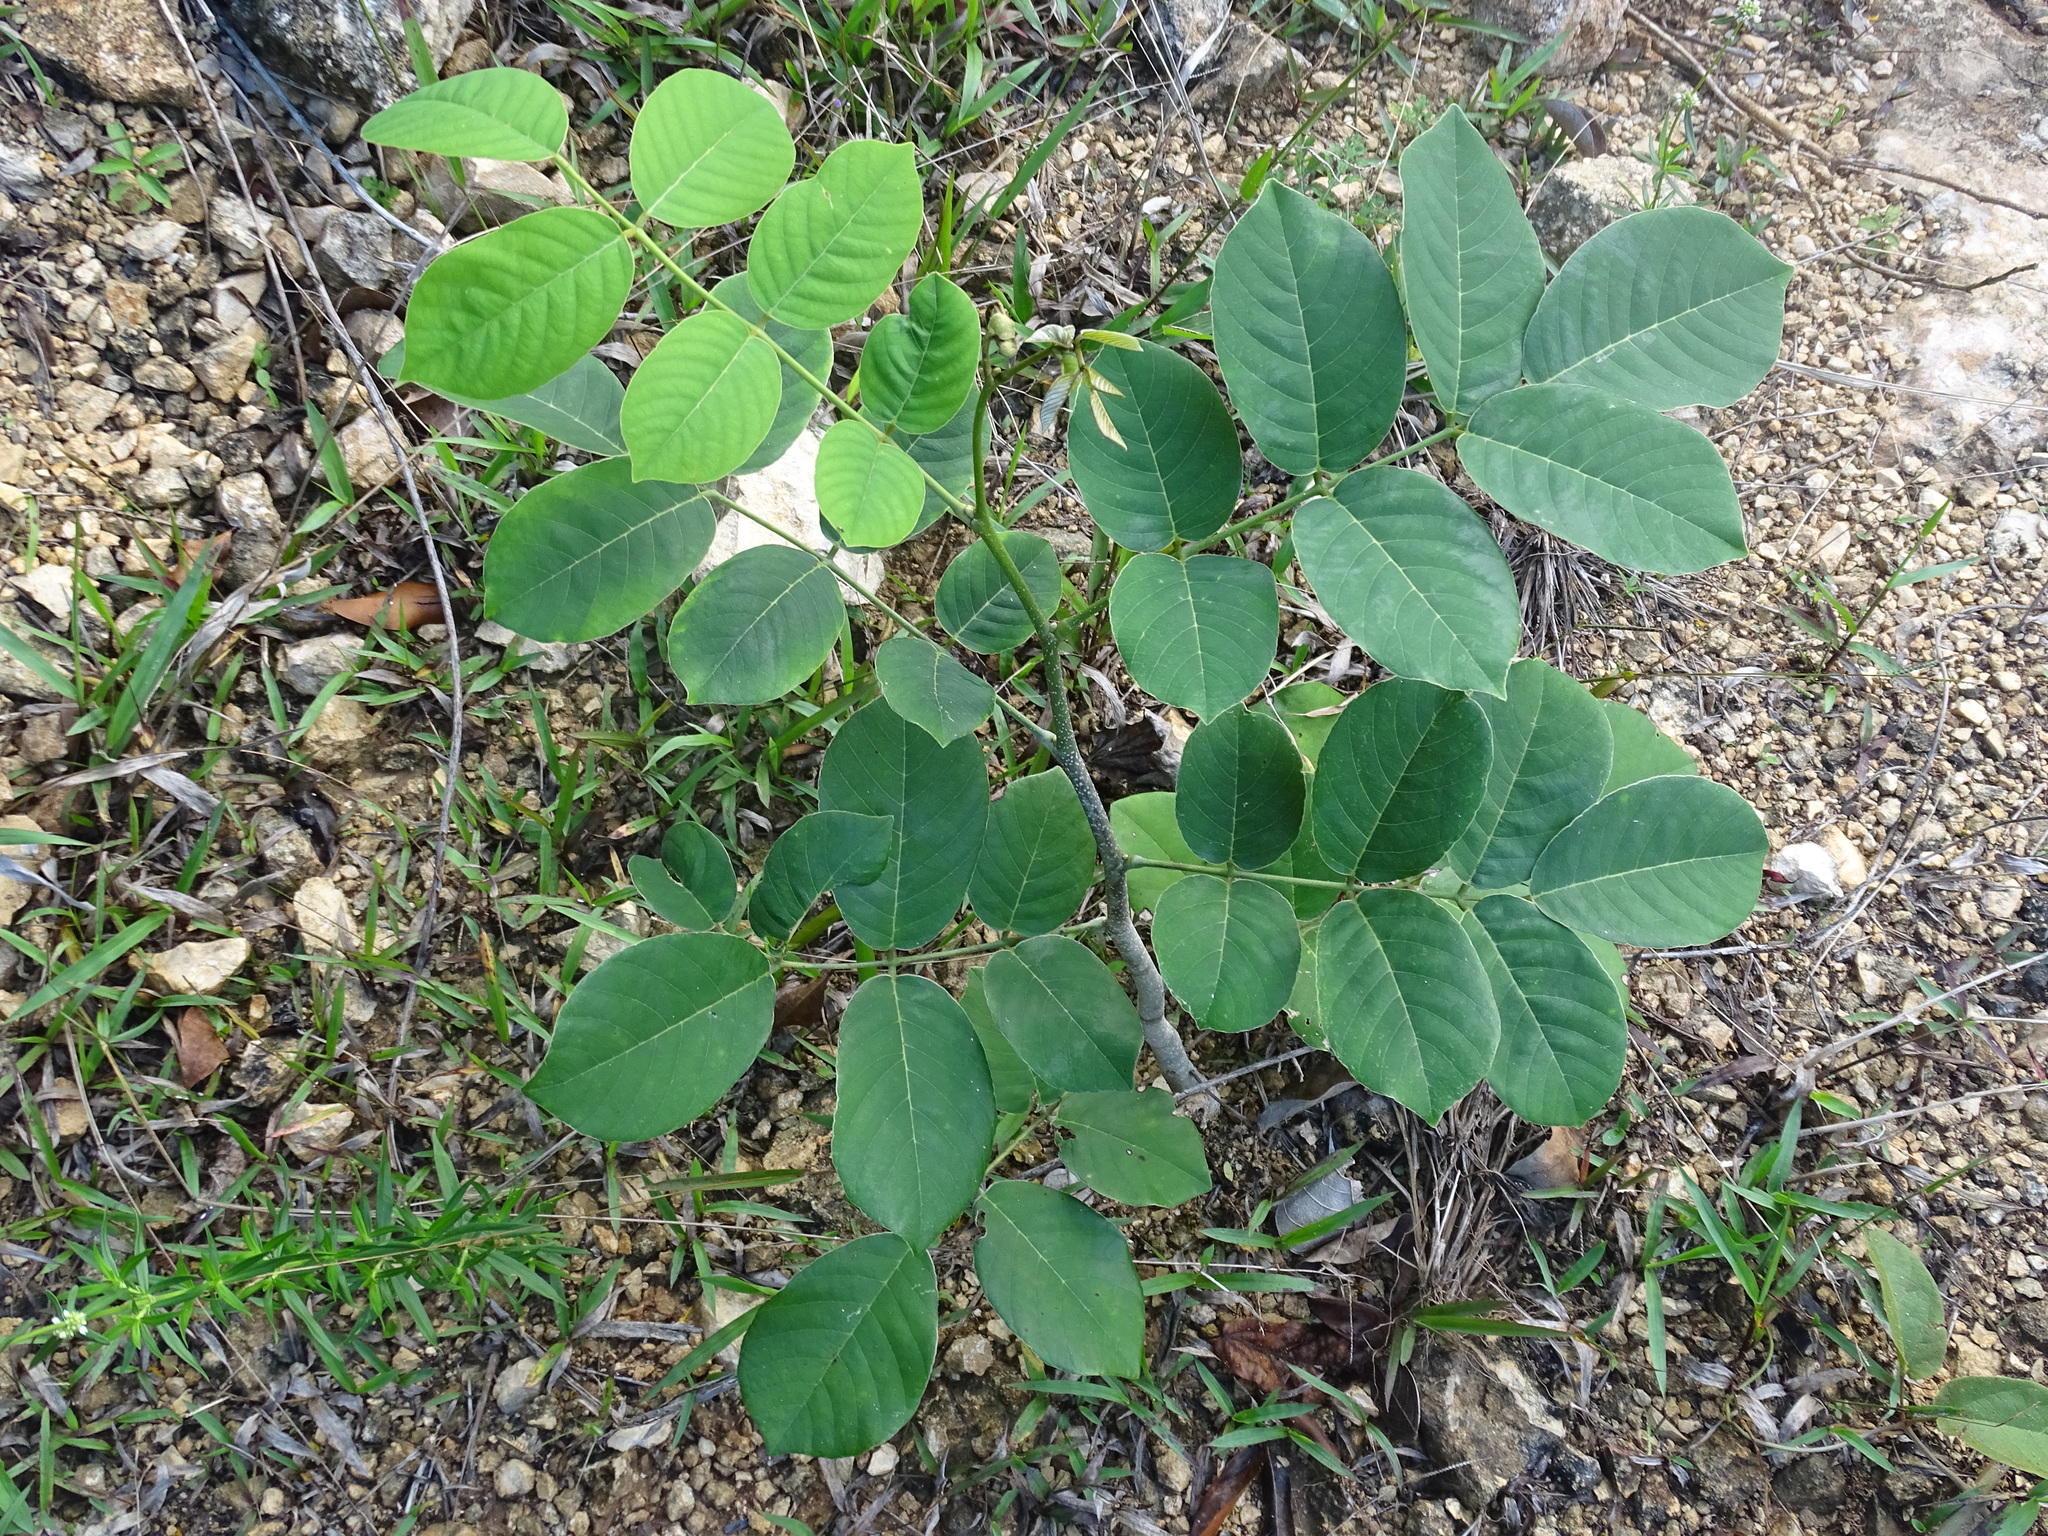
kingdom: Plantae
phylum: Tracheophyta
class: Magnoliopsida
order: Fabales
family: Fabaceae
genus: Piscidia
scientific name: Piscidia piscipula
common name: Florida fishpoison tree
